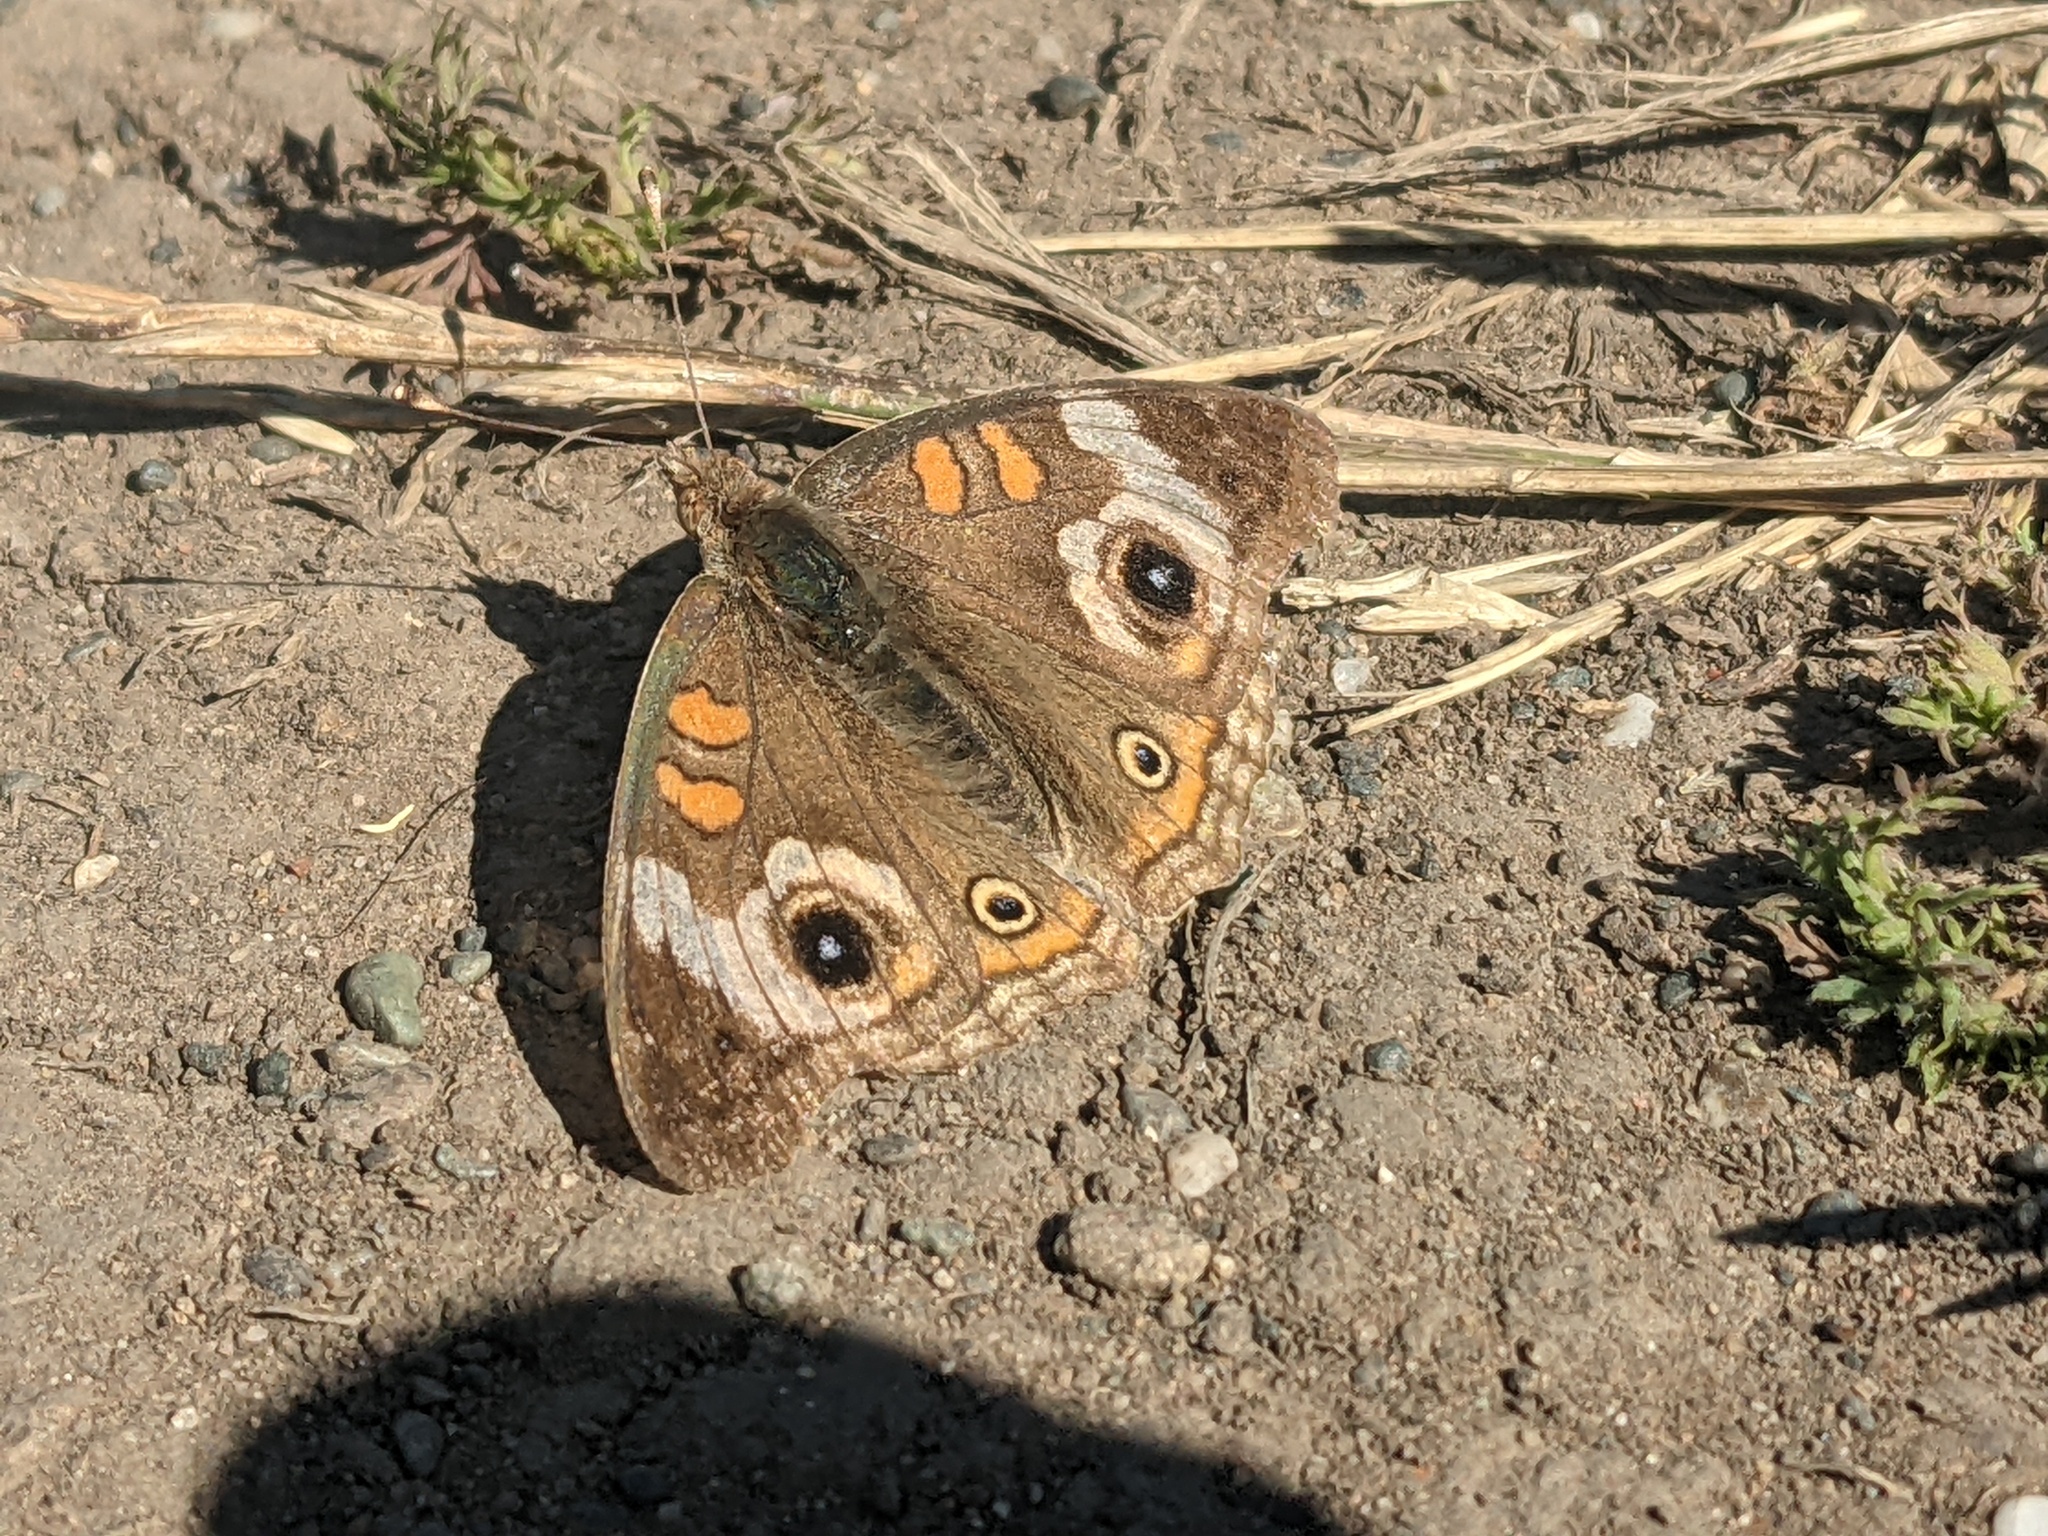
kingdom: Animalia
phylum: Arthropoda
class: Insecta
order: Lepidoptera
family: Nymphalidae
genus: Junonia
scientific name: Junonia grisea
